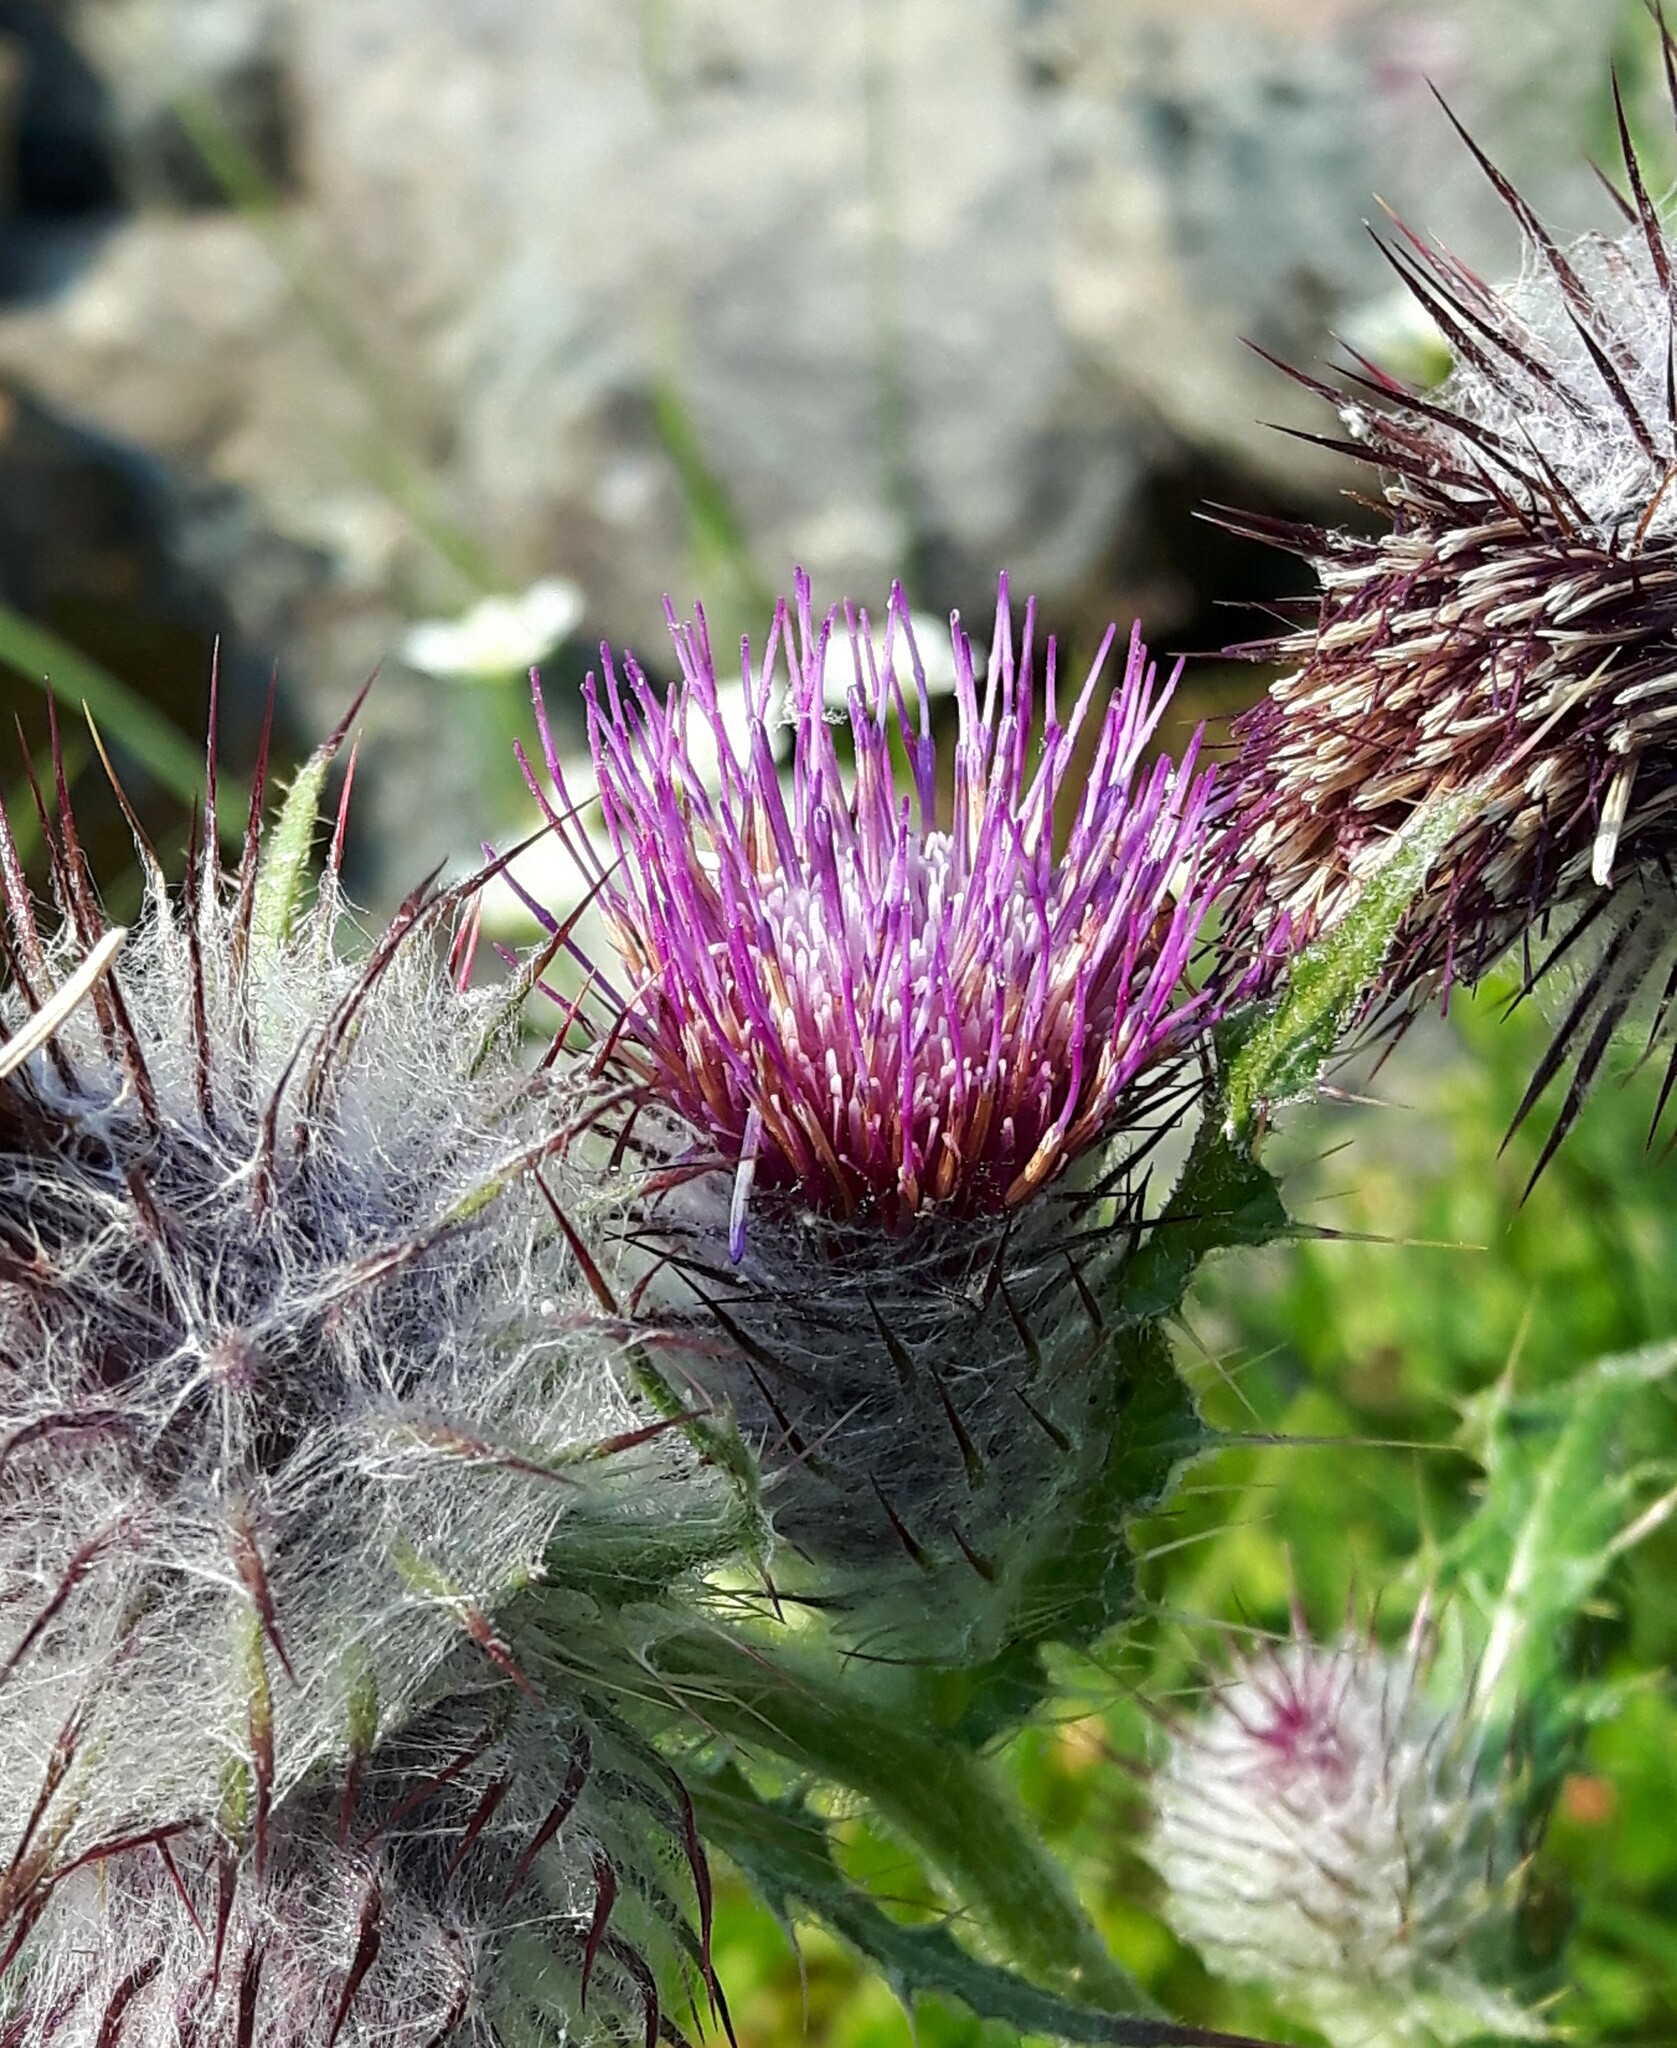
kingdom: Plantae
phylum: Tracheophyta
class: Magnoliopsida
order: Asterales
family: Asteraceae
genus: Cirsium
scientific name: Cirsium edule
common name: Indian thistle
